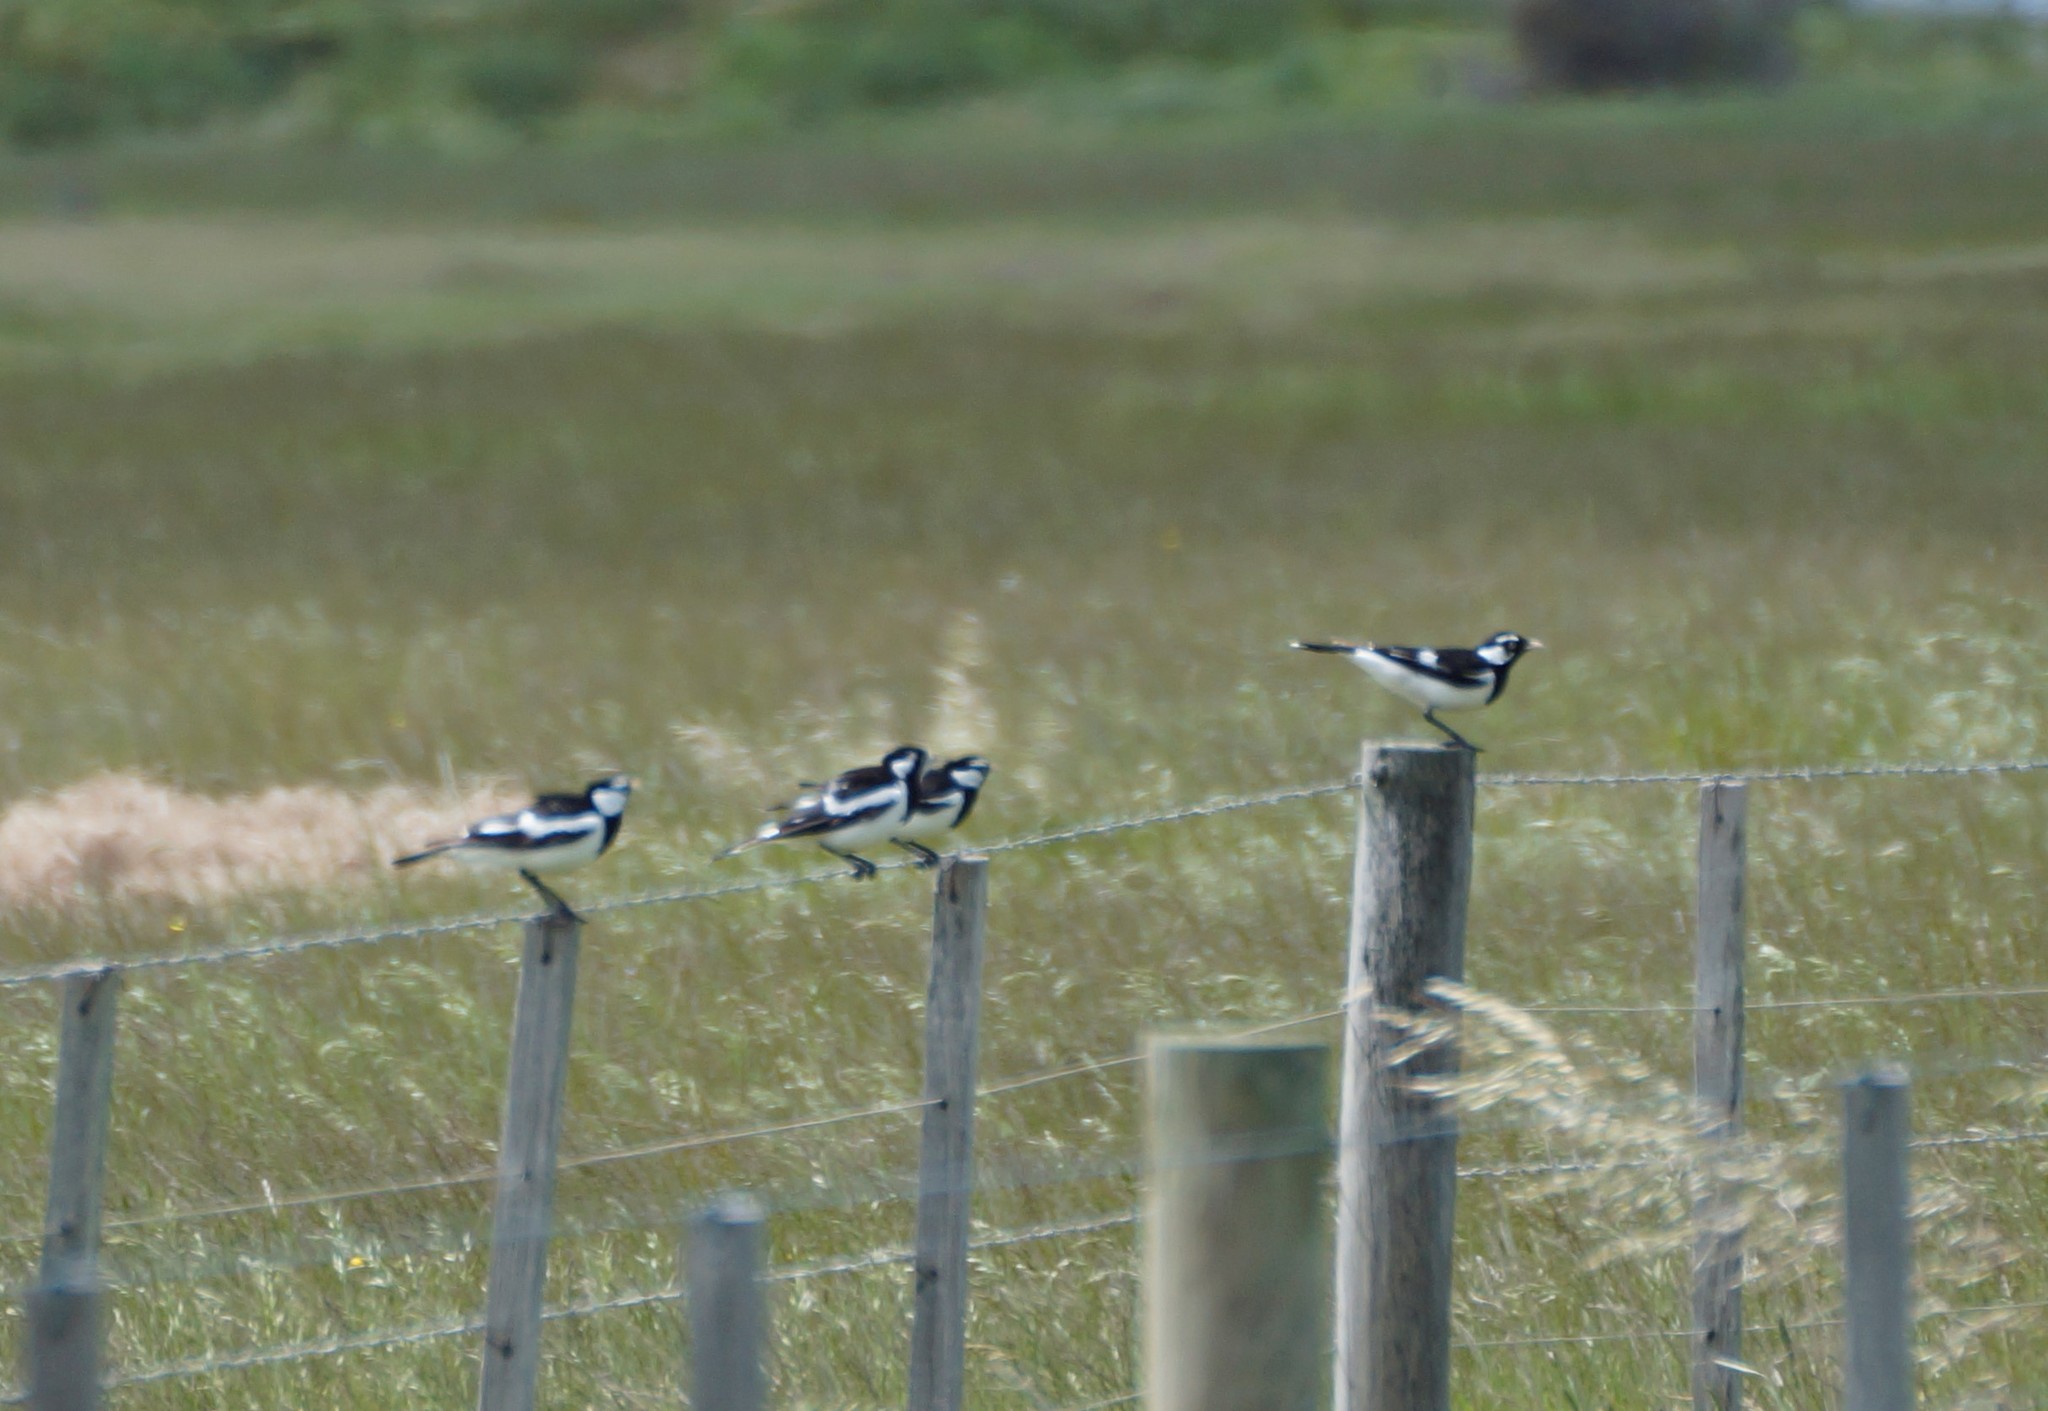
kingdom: Animalia
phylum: Chordata
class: Aves
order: Passeriformes
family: Monarchidae
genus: Grallina
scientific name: Grallina cyanoleuca
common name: Magpie-lark
